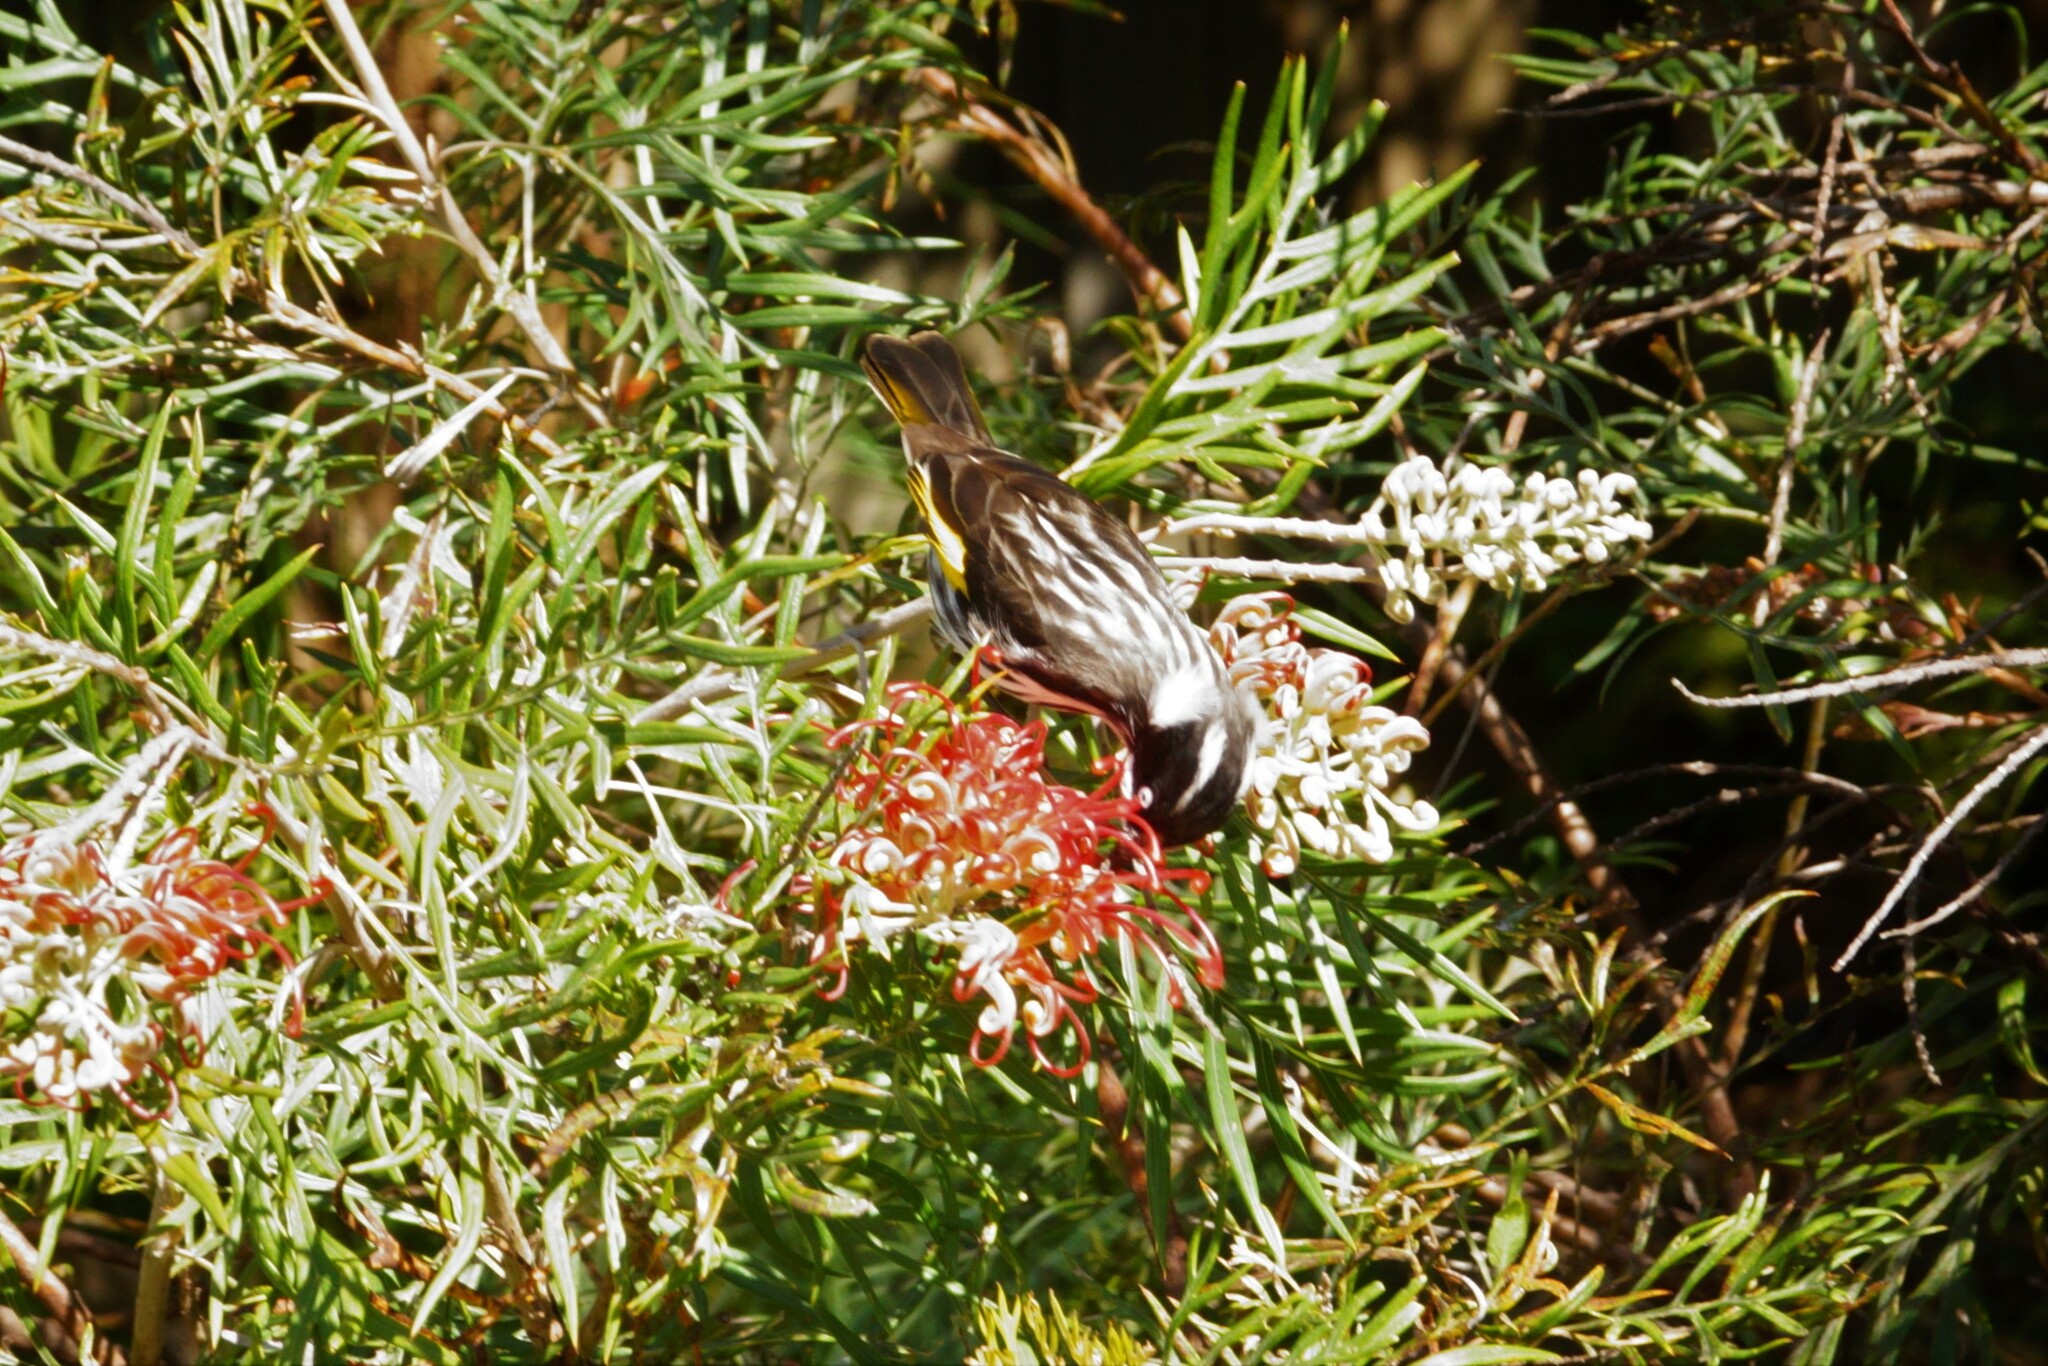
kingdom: Animalia
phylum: Chordata
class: Aves
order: Passeriformes
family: Meliphagidae
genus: Phylidonyris
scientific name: Phylidonyris novaehollandiae
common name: New holland honeyeater
